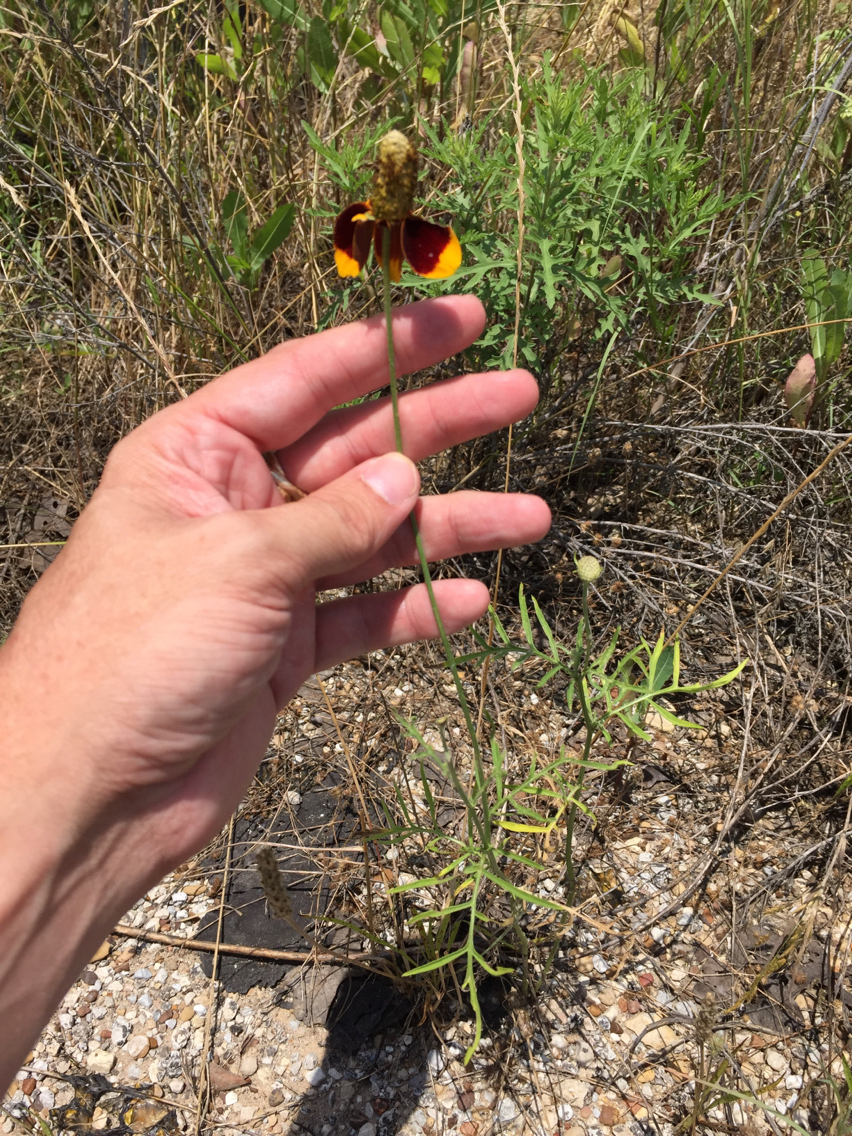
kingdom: Plantae
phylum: Tracheophyta
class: Magnoliopsida
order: Asterales
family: Asteraceae
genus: Ratibida
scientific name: Ratibida columnifera
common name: Prairie coneflower
